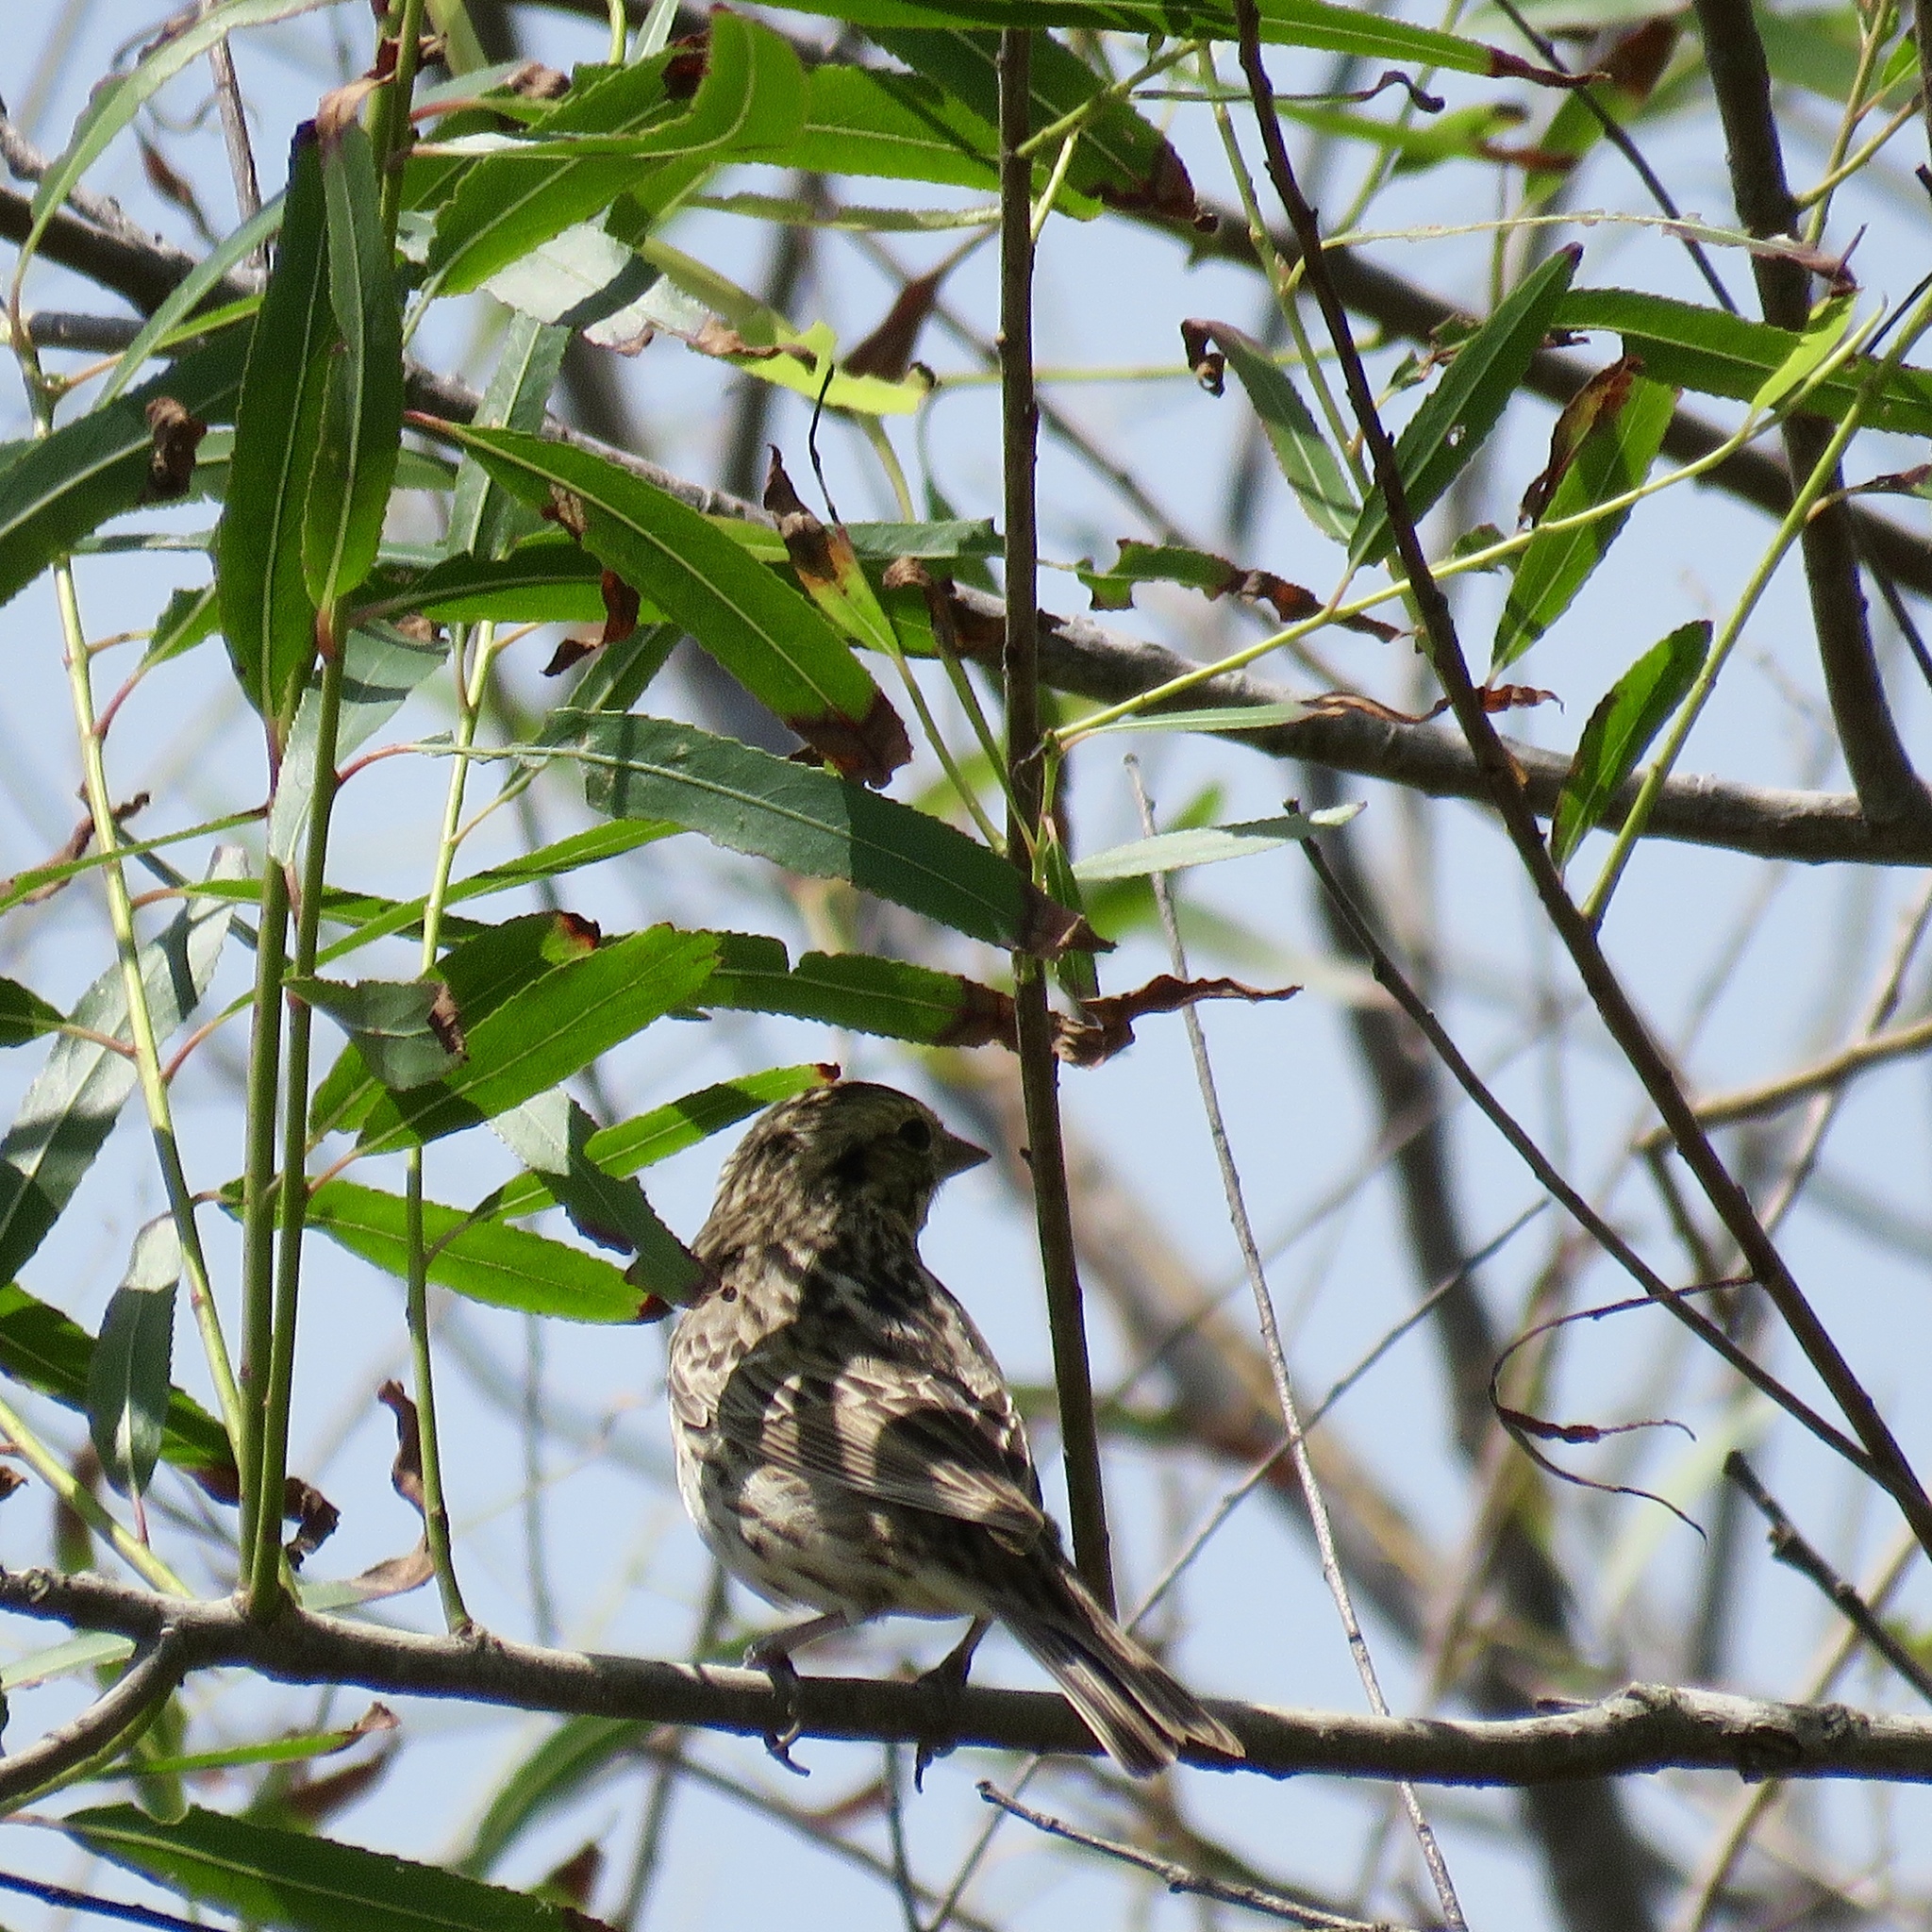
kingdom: Animalia
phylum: Chordata
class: Aves
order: Passeriformes
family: Passerellidae
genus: Passerculus
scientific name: Passerculus sandwichensis
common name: Savannah sparrow
